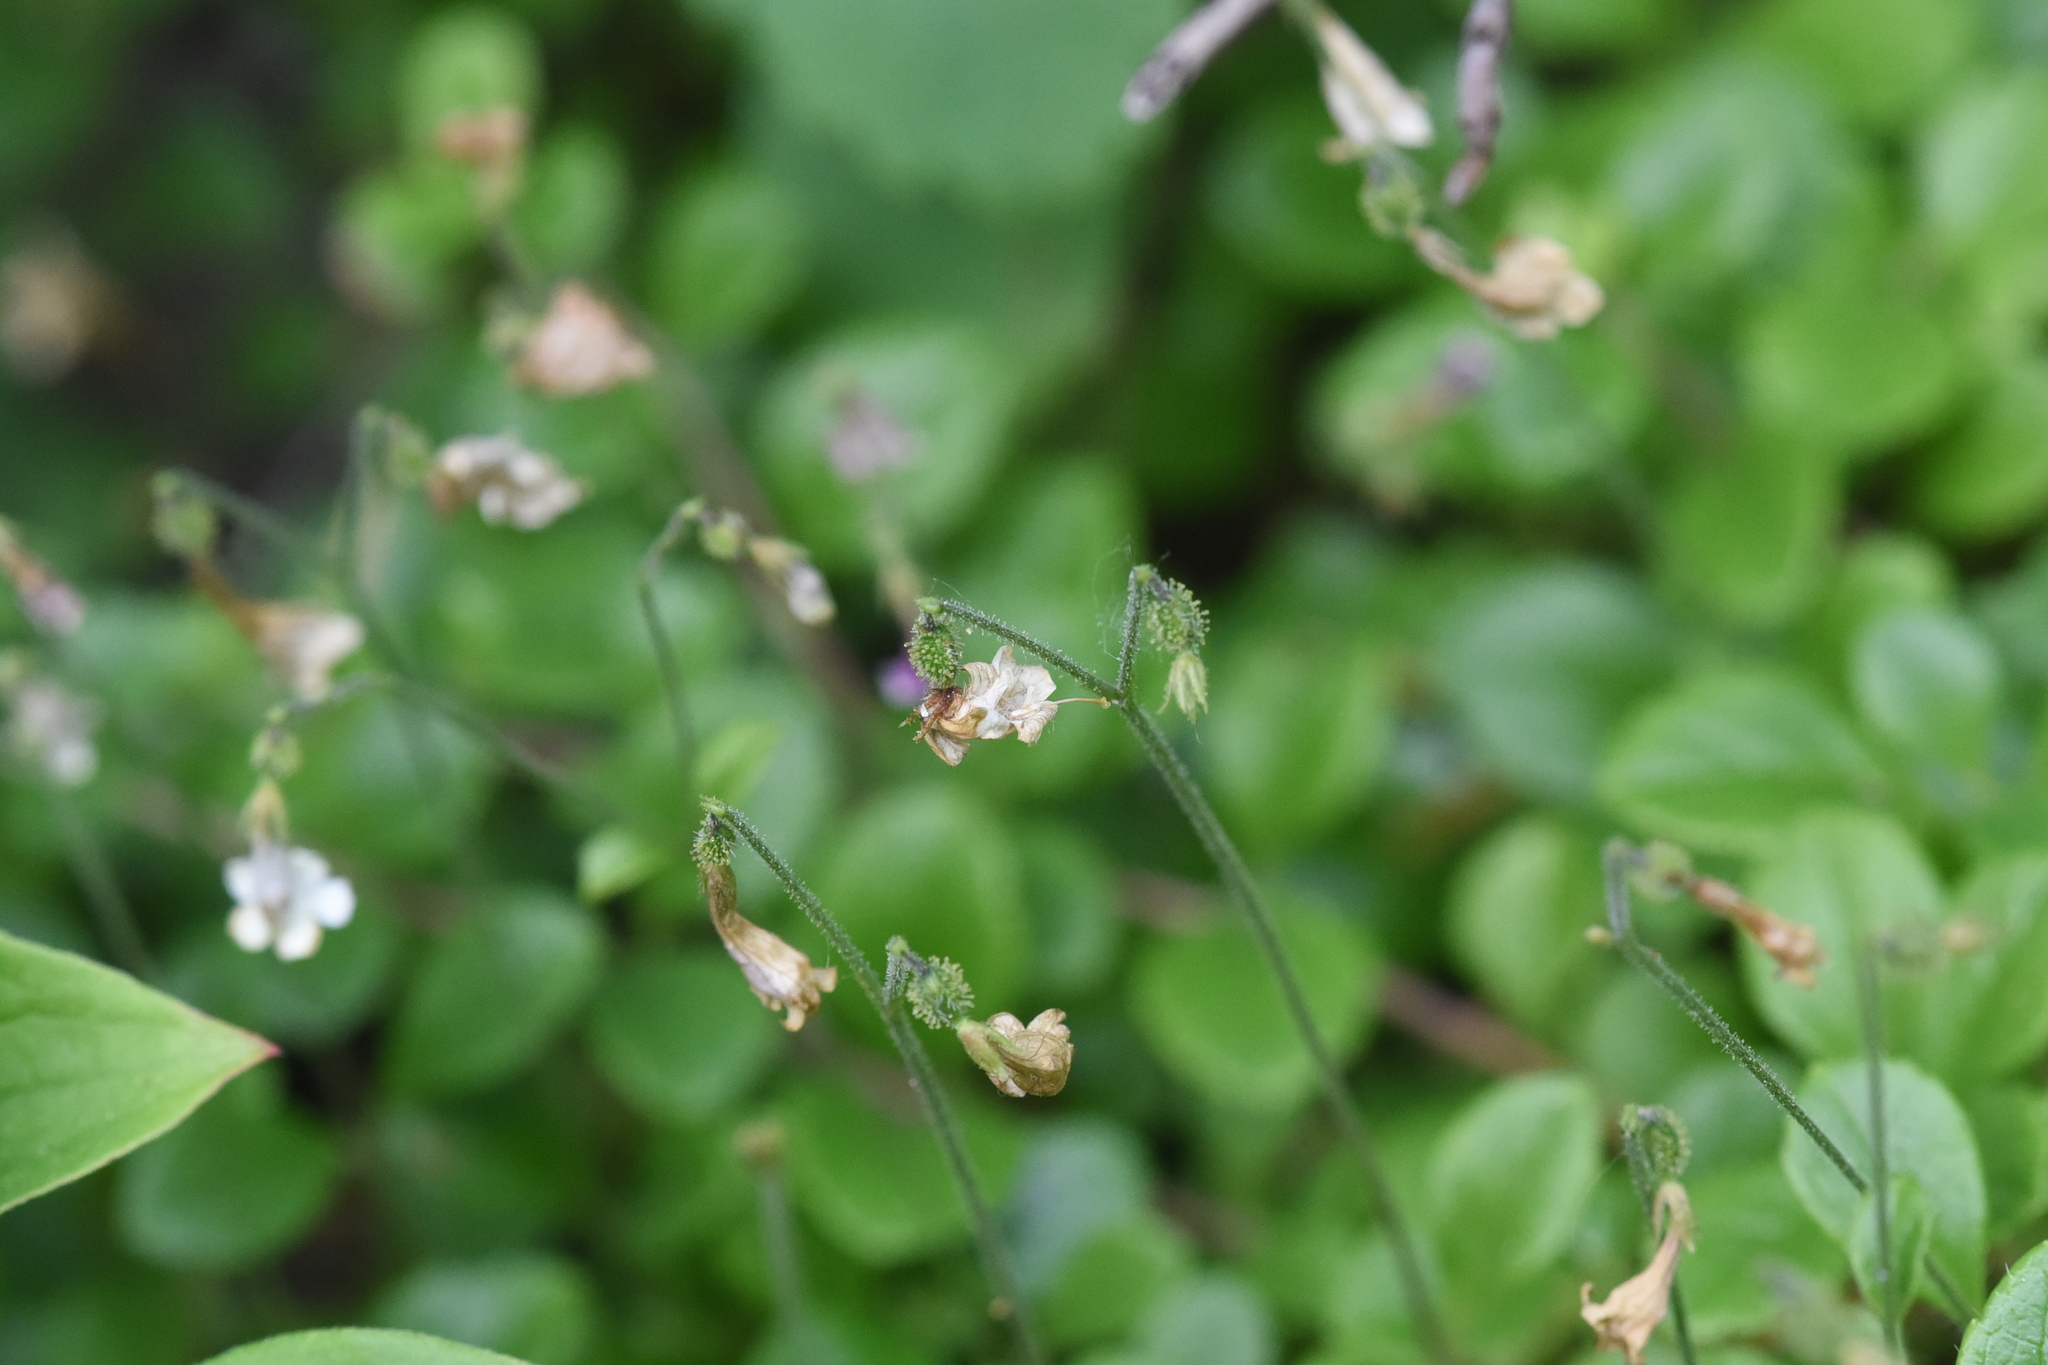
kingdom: Plantae
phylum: Tracheophyta
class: Magnoliopsida
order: Dipsacales
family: Caprifoliaceae
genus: Linnaea
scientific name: Linnaea borealis
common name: Twinflower
